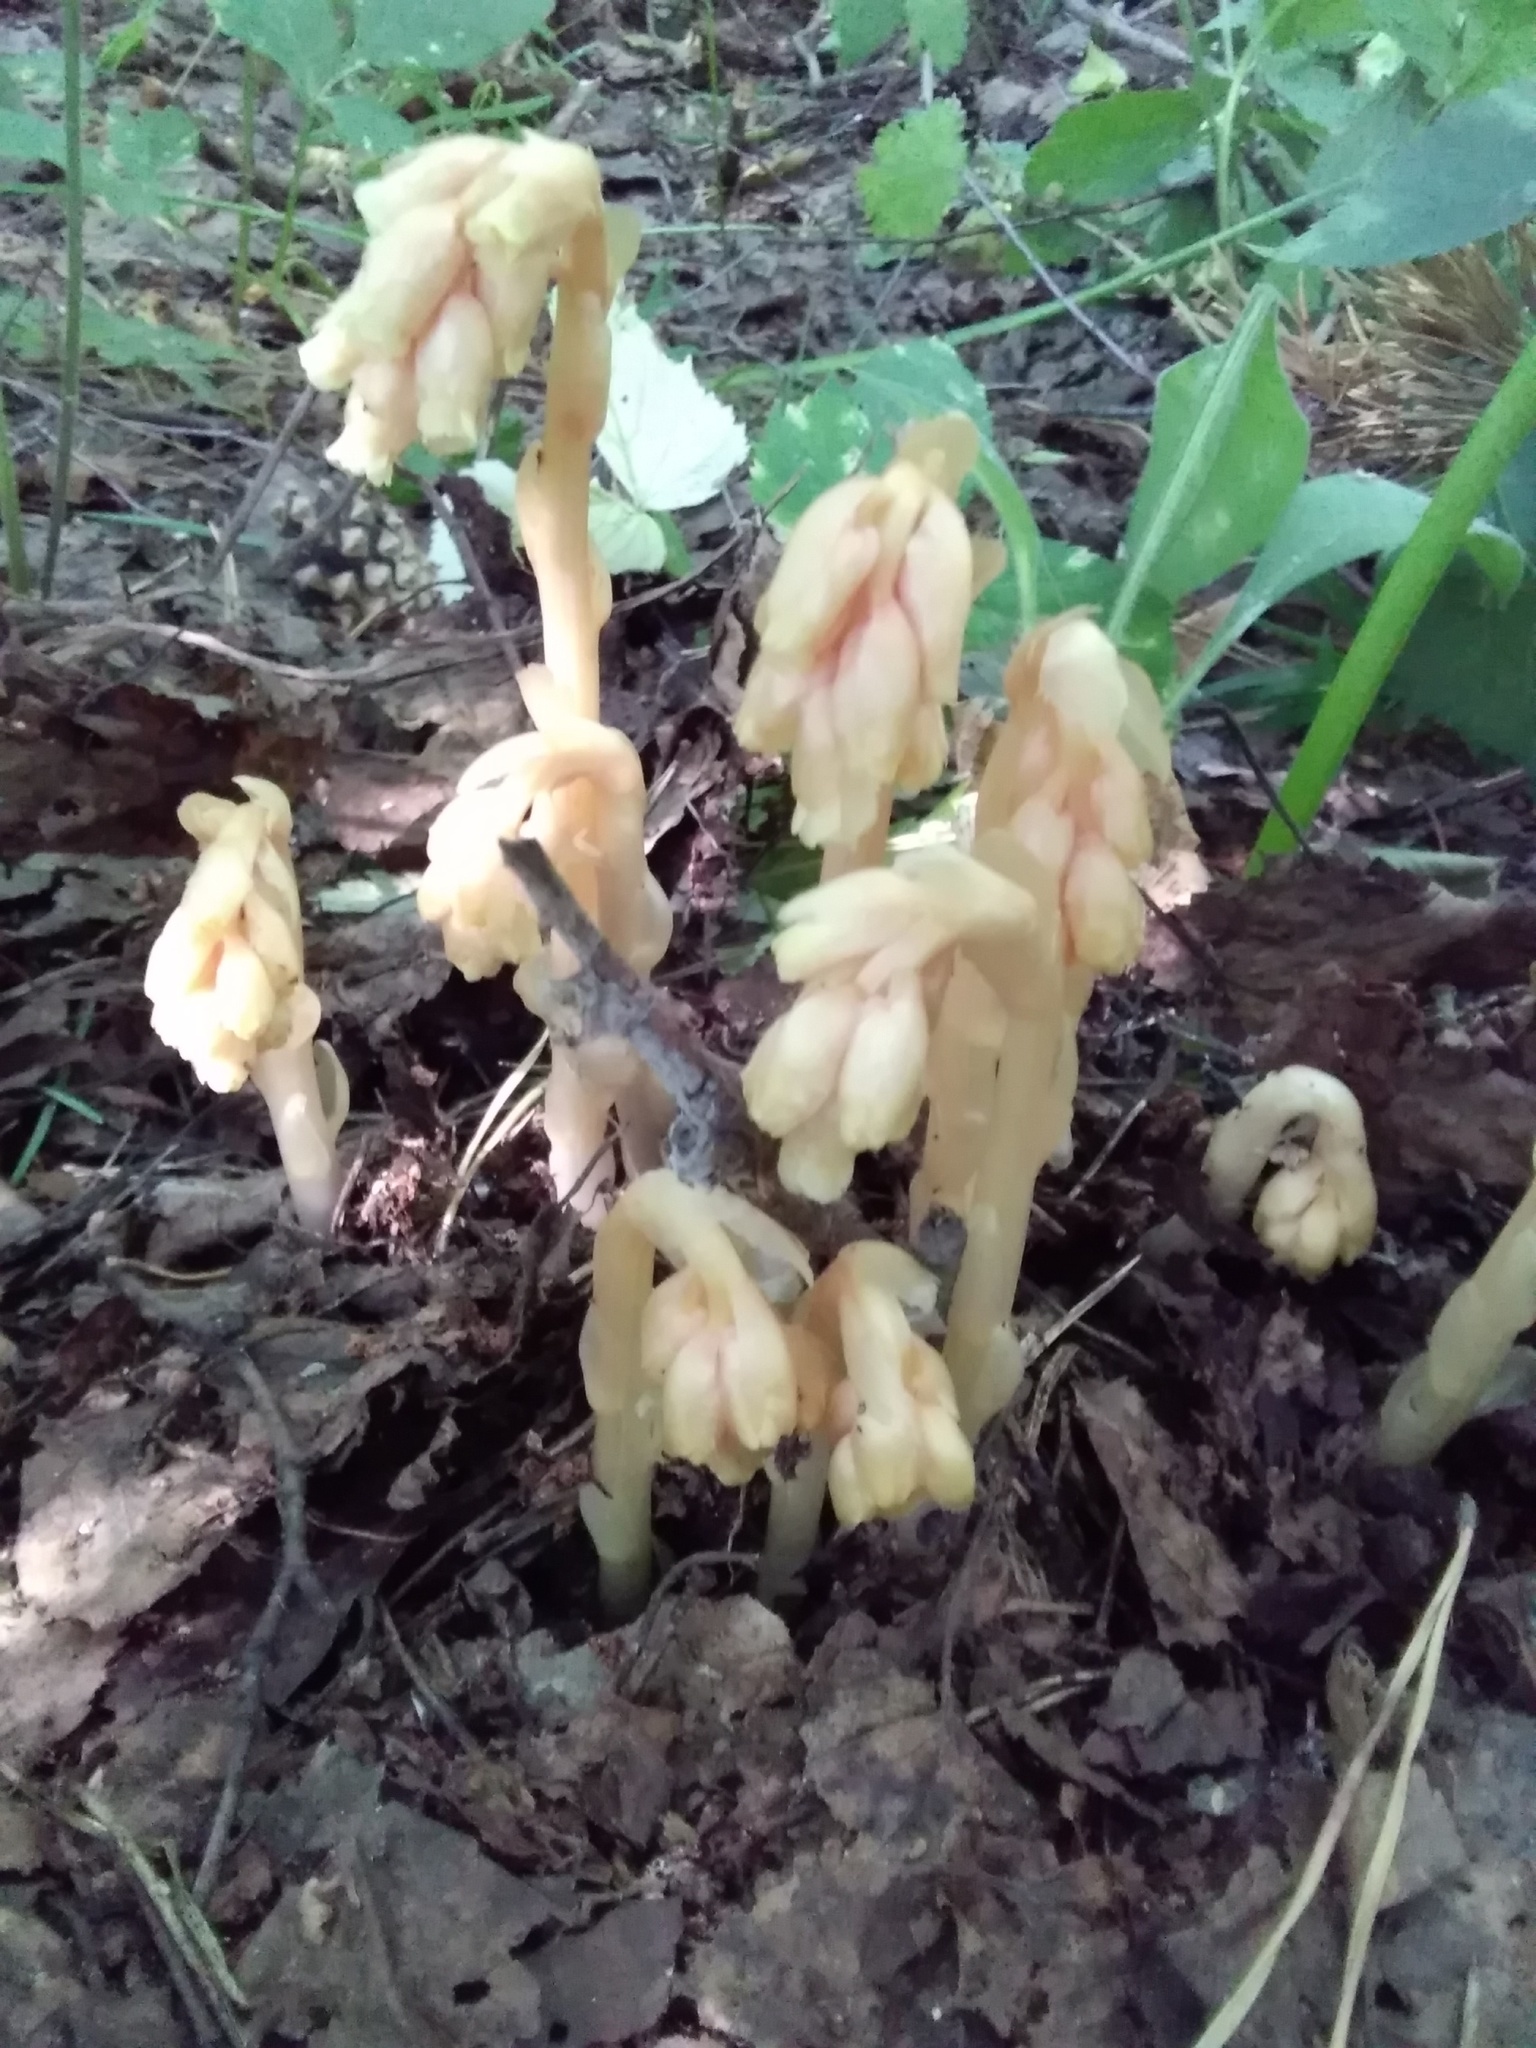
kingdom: Plantae
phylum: Tracheophyta
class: Magnoliopsida
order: Ericales
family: Ericaceae
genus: Hypopitys
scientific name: Hypopitys monotropa
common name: Yellow bird's-nest
